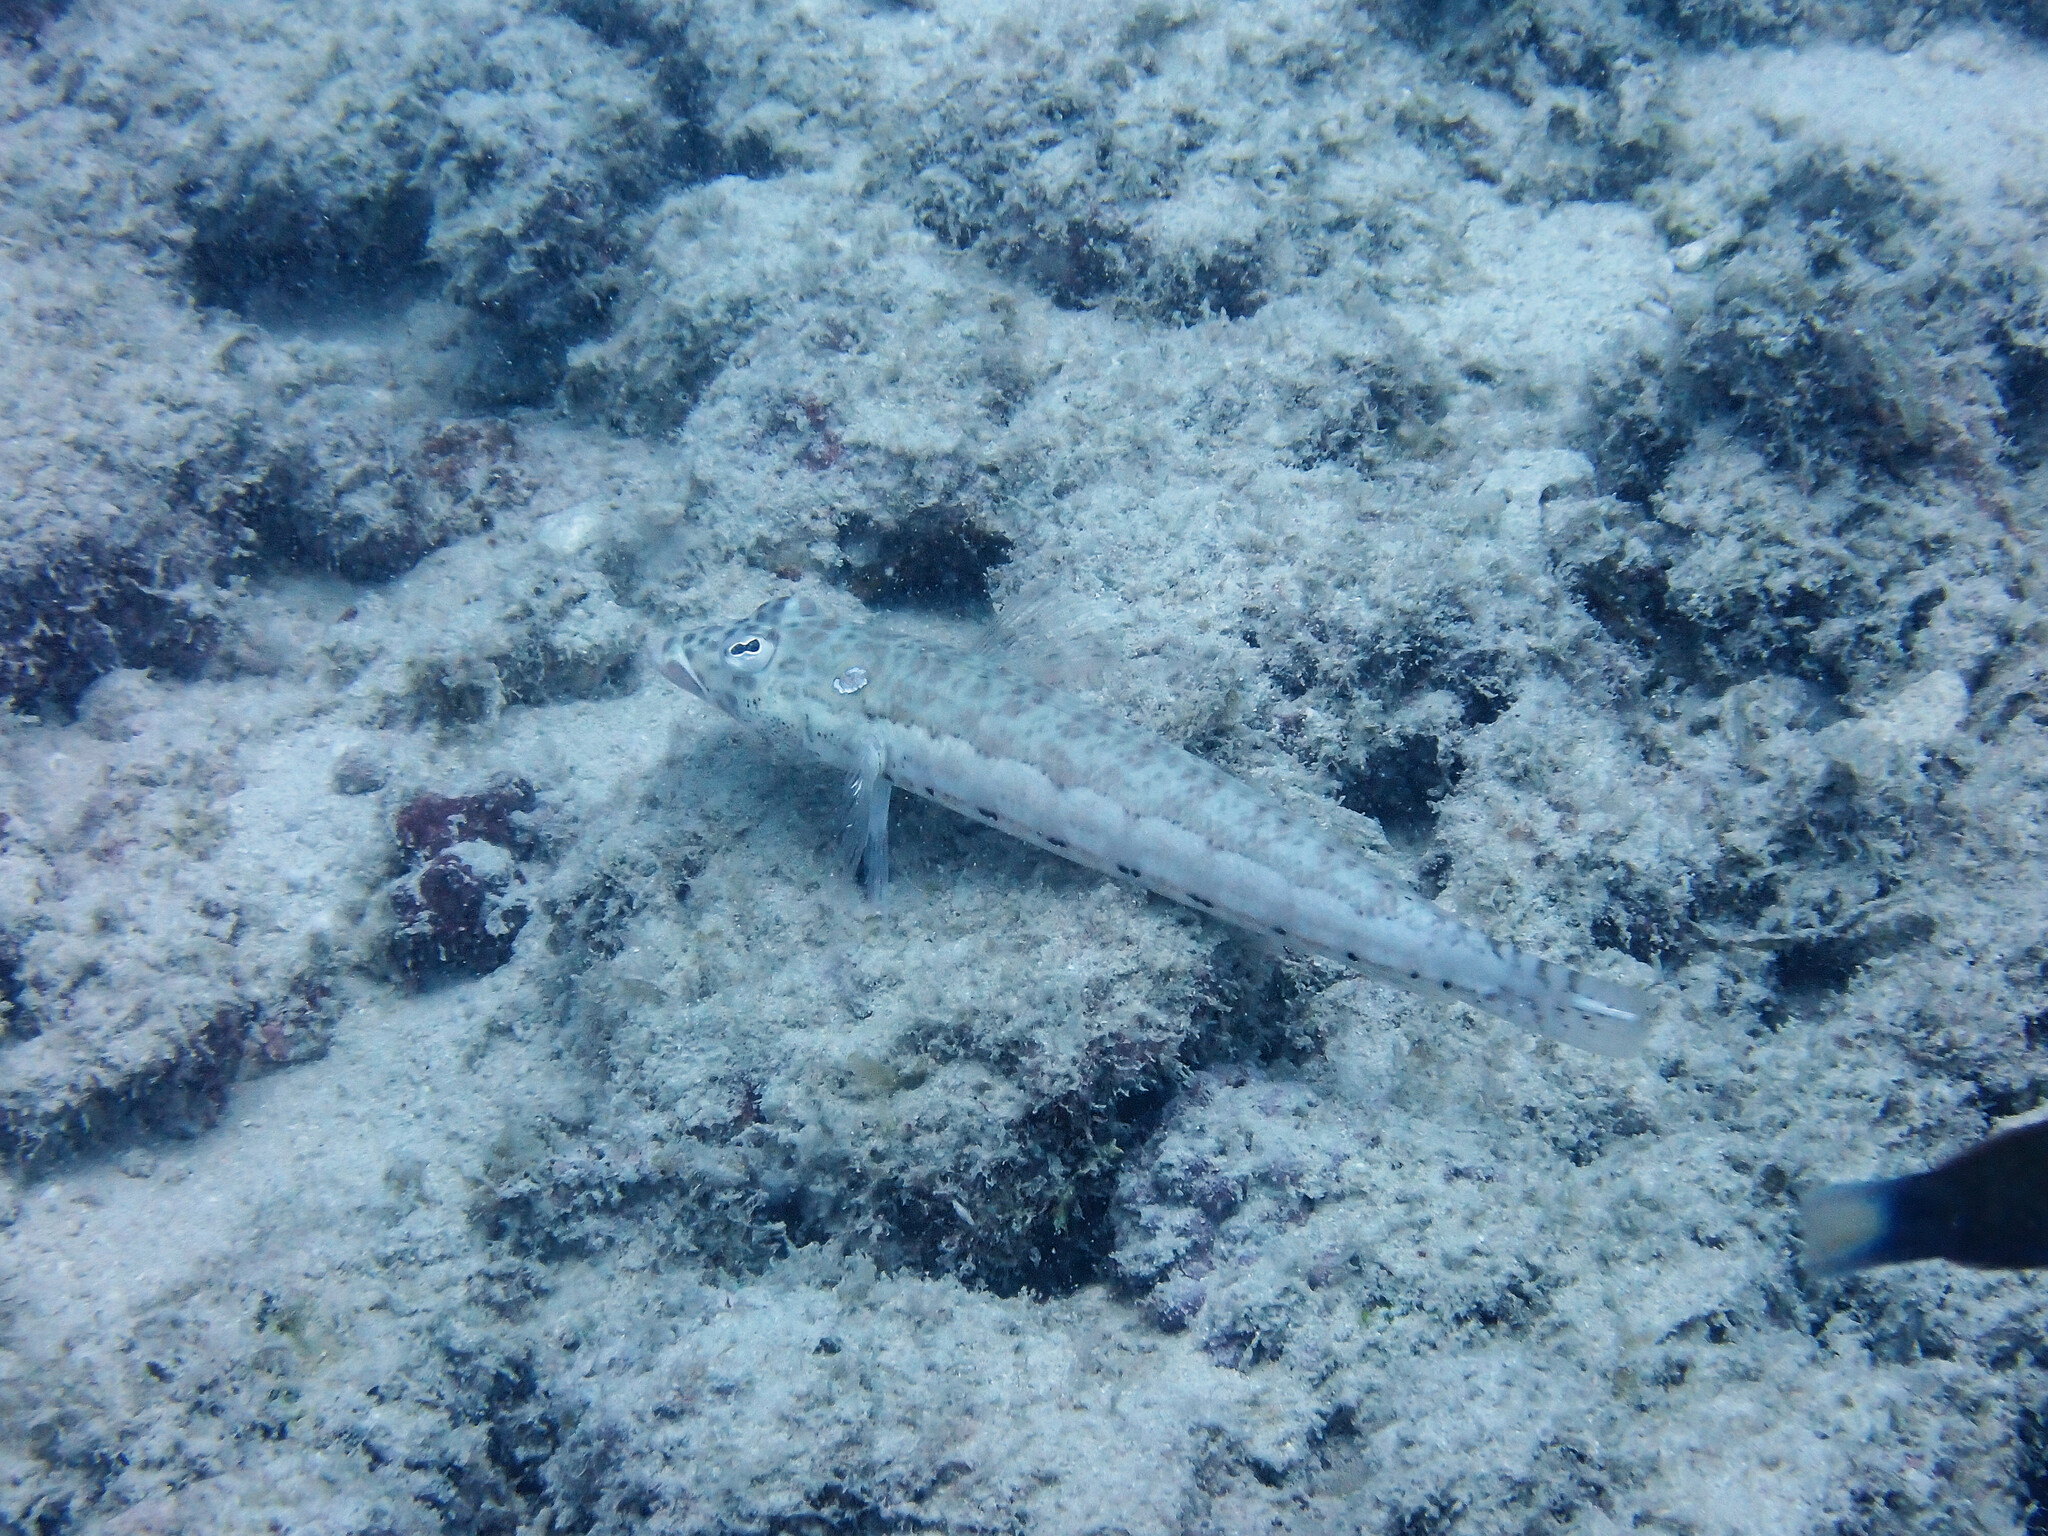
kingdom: Animalia
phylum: Chordata
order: Perciformes
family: Pinguipedidae
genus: Parapercis
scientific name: Parapercis clathrata
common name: Latticed sandperch
